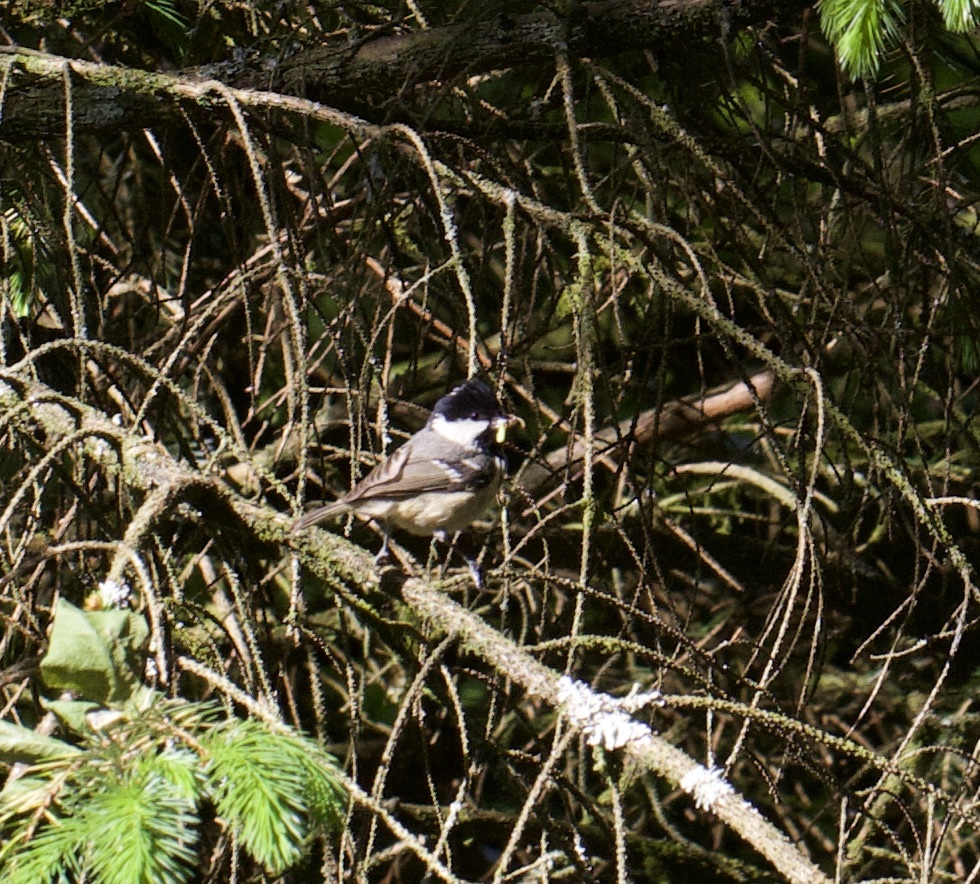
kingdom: Animalia
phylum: Chordata
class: Aves
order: Passeriformes
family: Paridae
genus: Periparus
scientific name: Periparus ater
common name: Coal tit
